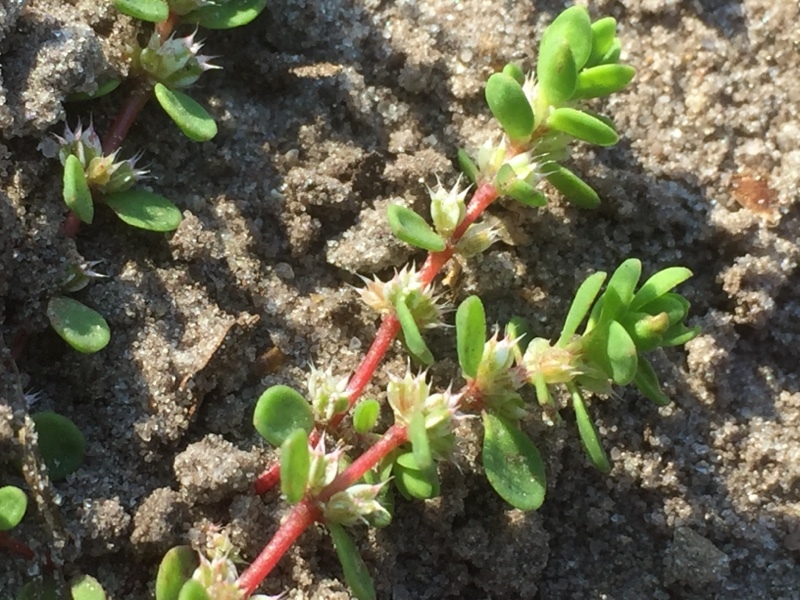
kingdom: Plantae
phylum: Tracheophyta
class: Magnoliopsida
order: Caryophyllales
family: Caryophyllaceae
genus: Illecebrum
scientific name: Illecebrum verticillatum
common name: Coral necklace
